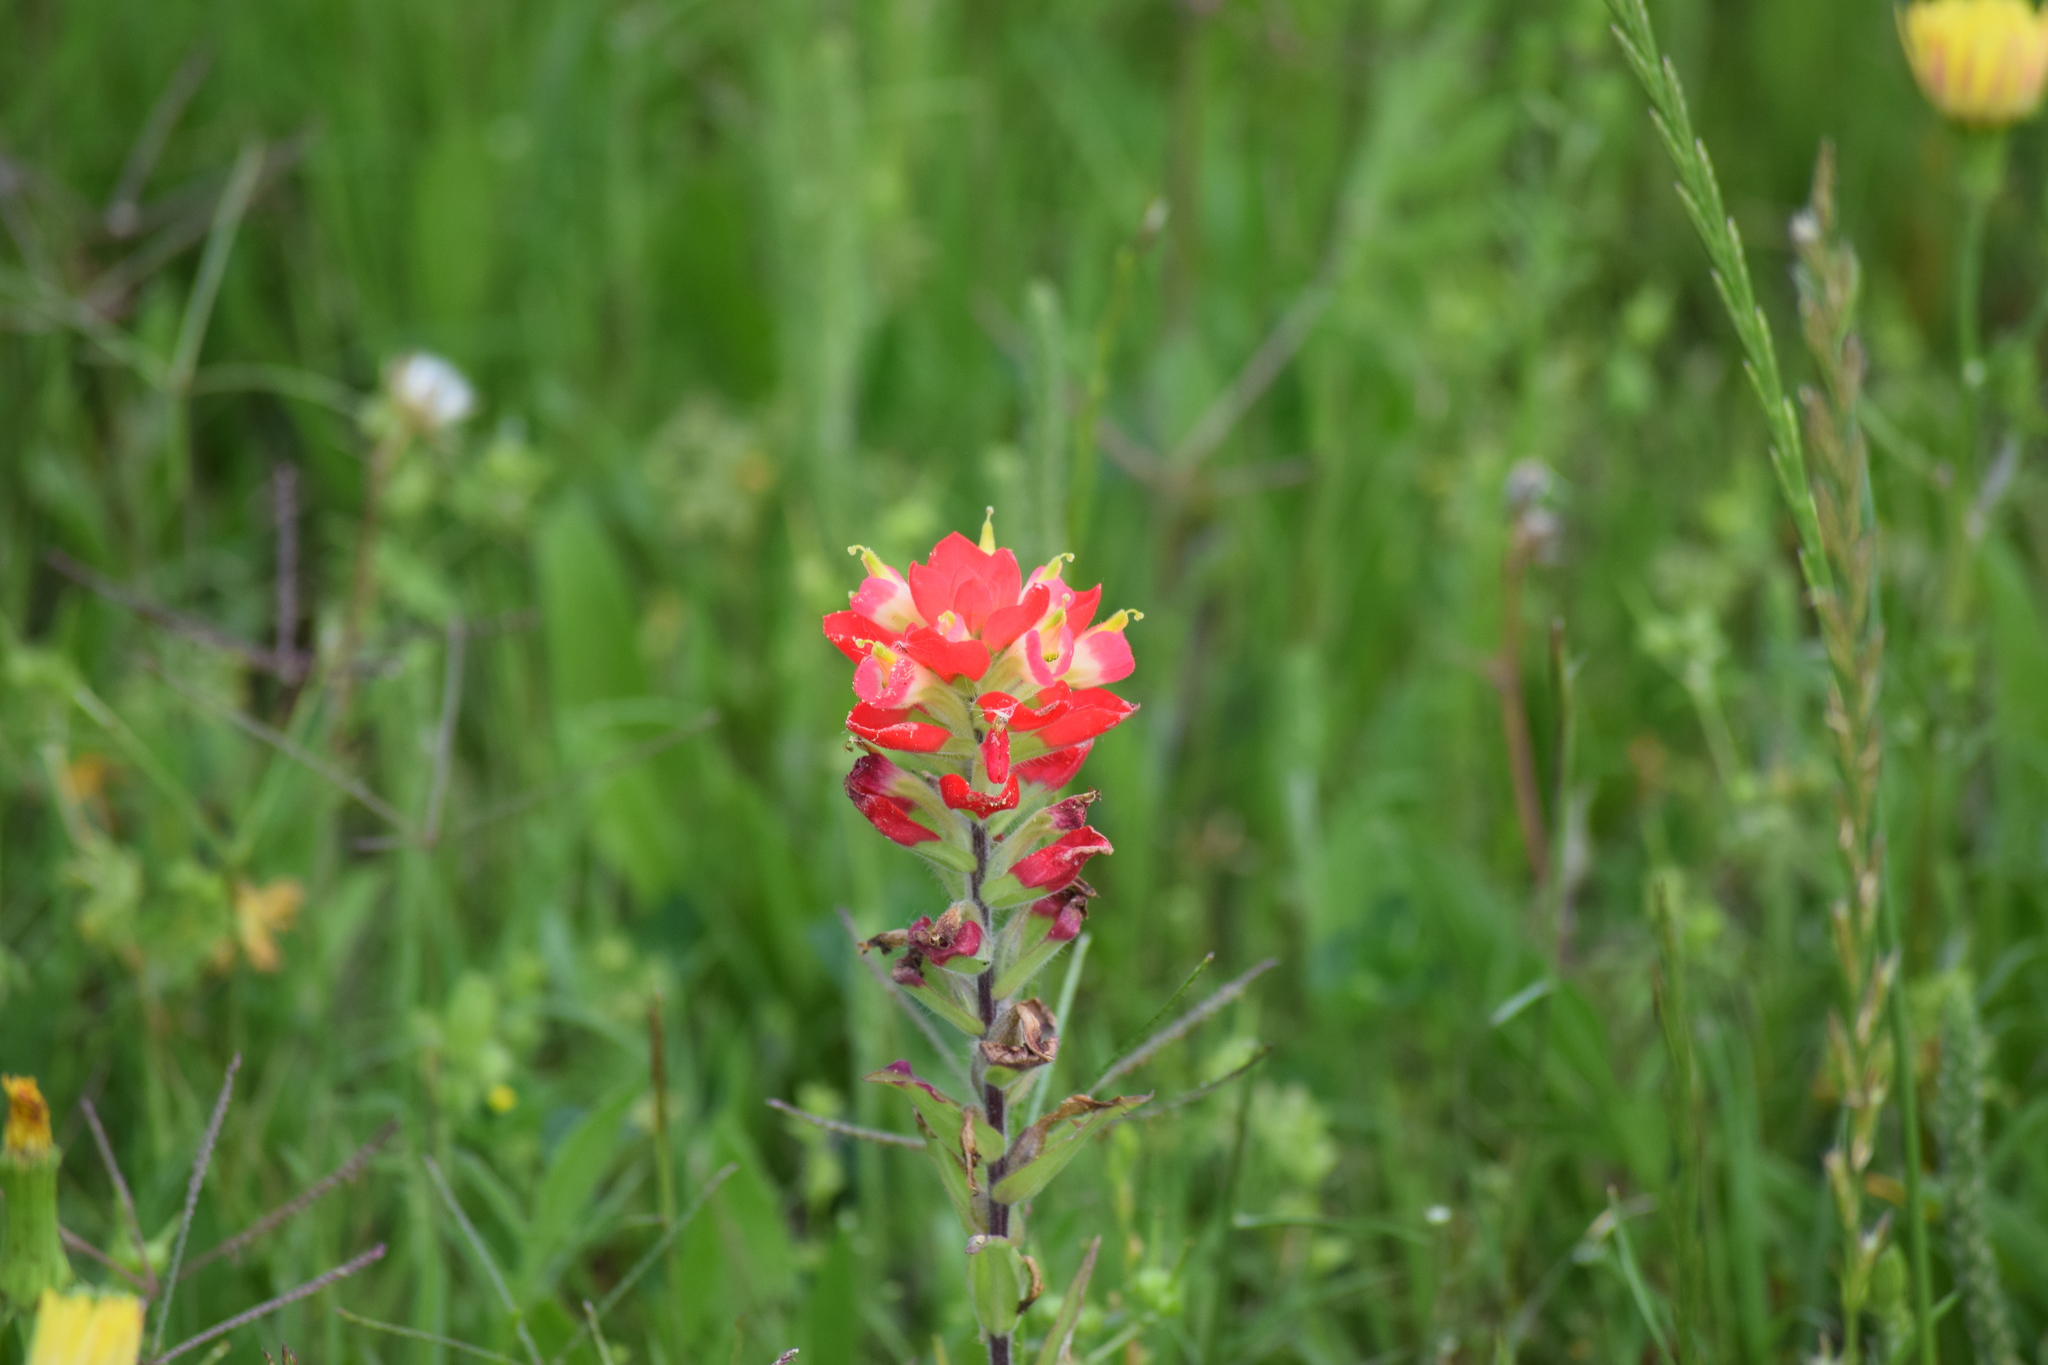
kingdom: Plantae
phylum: Tracheophyta
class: Magnoliopsida
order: Lamiales
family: Orobanchaceae
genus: Castilleja
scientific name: Castilleja indivisa
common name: Texas paintbrush
